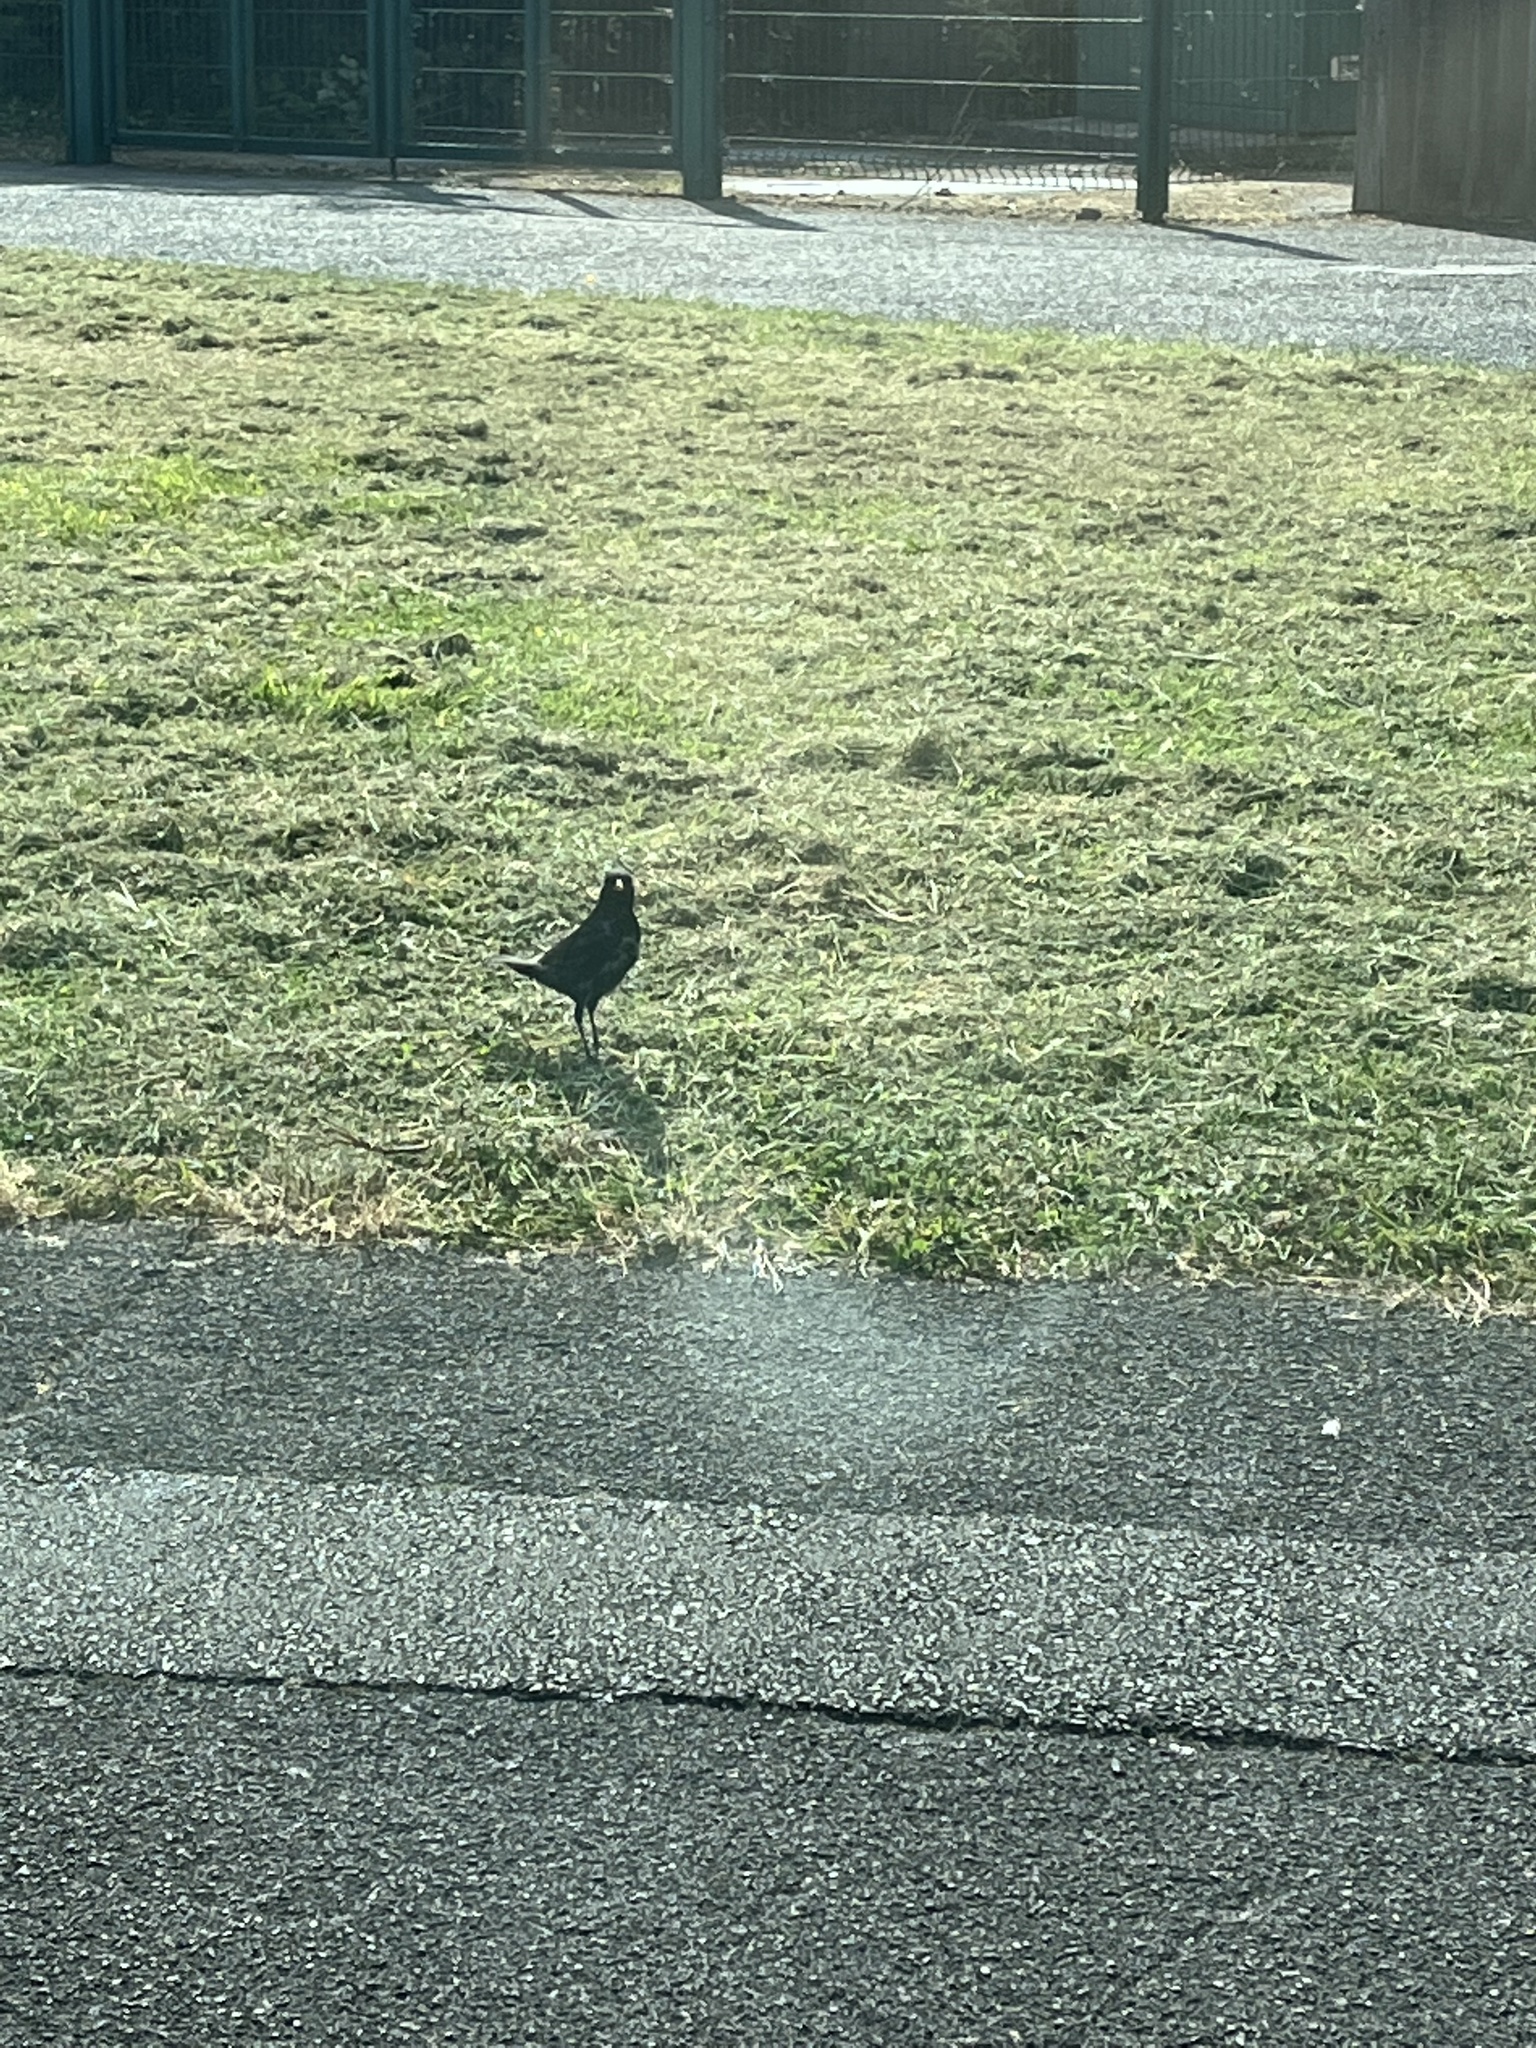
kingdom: Animalia
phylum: Chordata
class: Aves
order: Passeriformes
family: Turdidae
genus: Turdus
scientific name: Turdus merula
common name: Common blackbird
